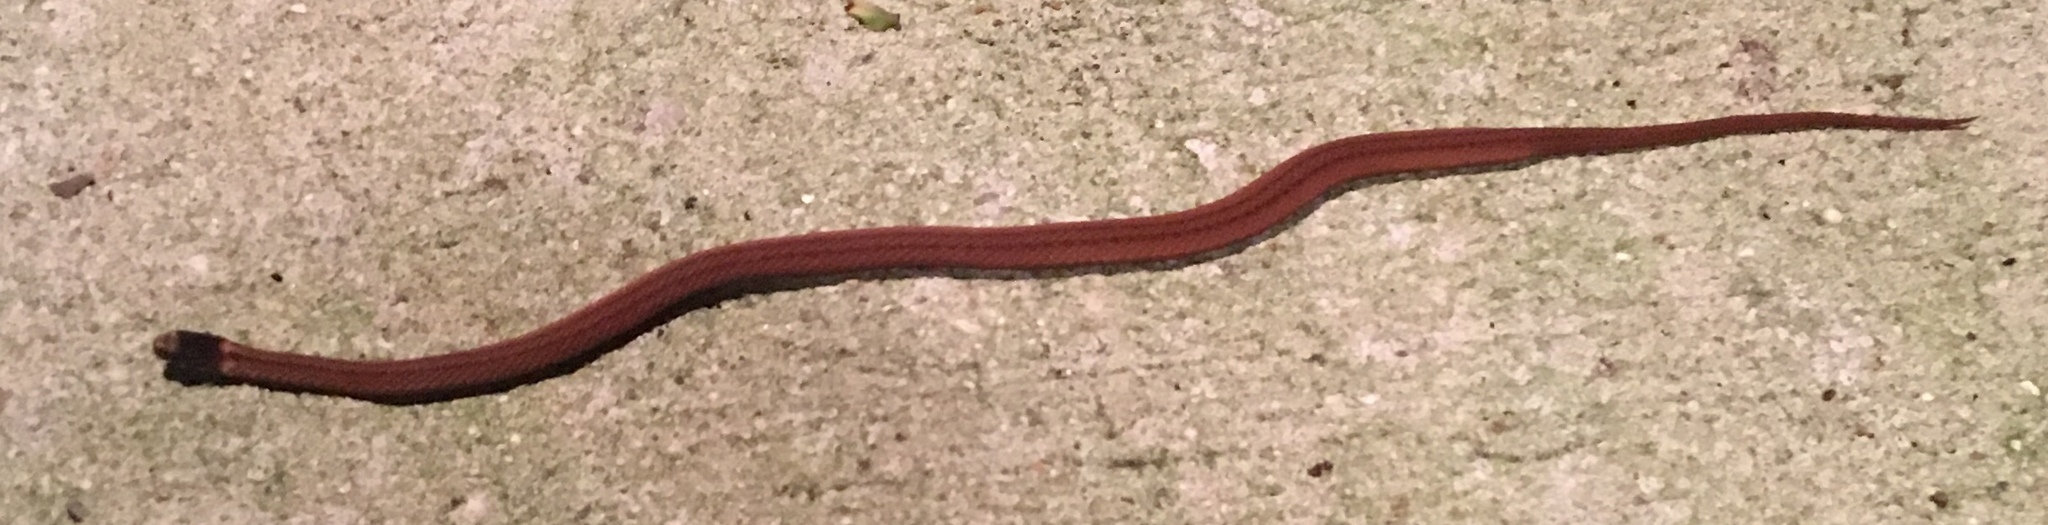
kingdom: Animalia
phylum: Chordata
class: Squamata
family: Colubridae
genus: Storeria
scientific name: Storeria occipitomaculata
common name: Redbelly snake
